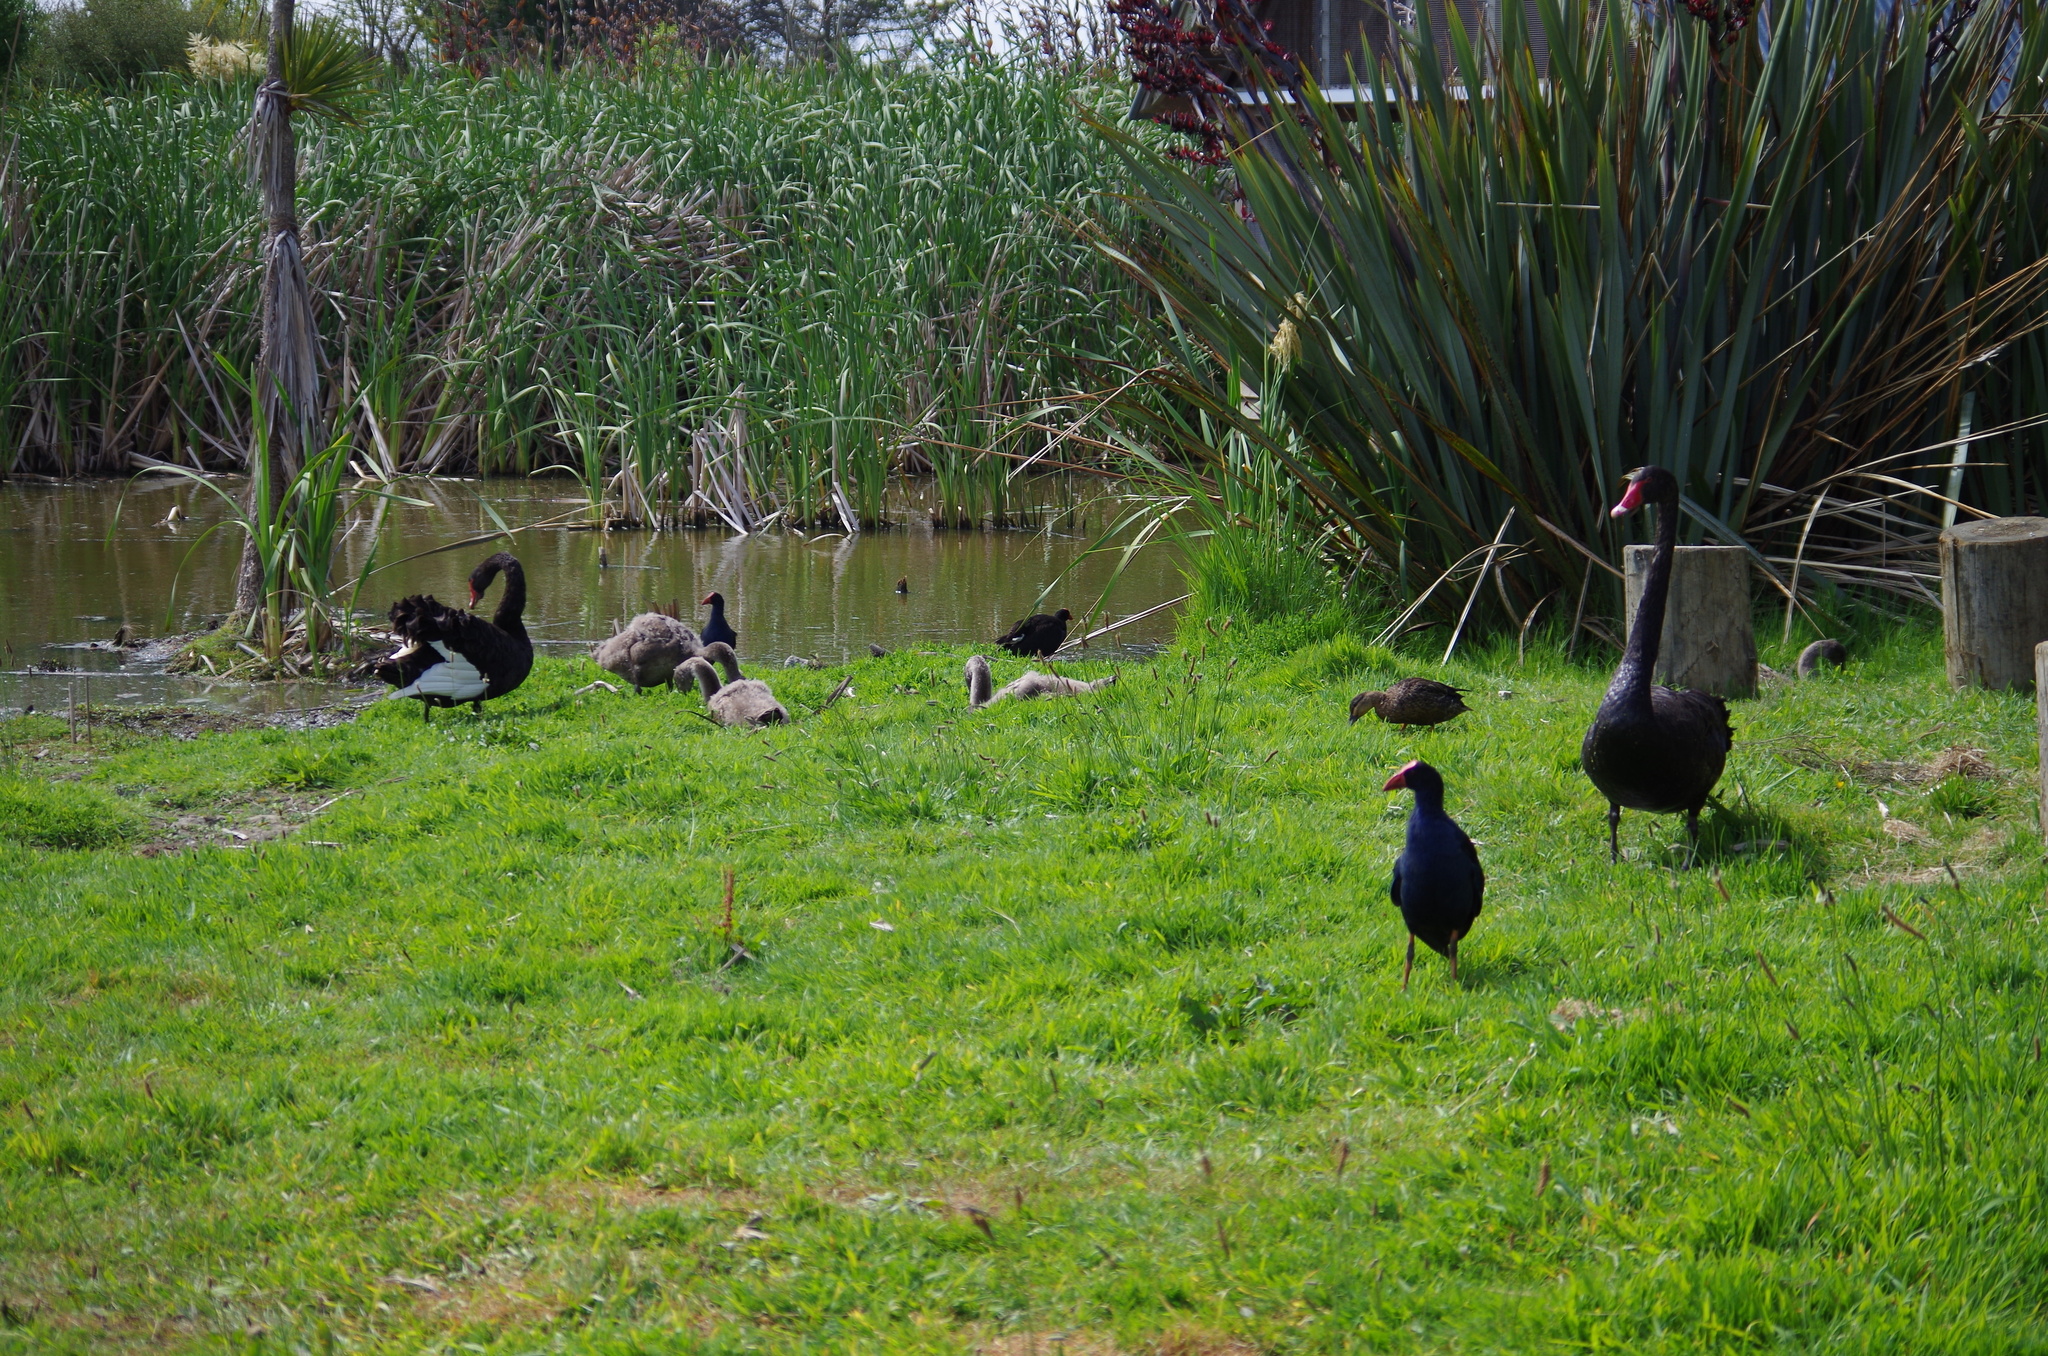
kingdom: Animalia
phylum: Chordata
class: Aves
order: Anseriformes
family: Anatidae
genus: Cygnus
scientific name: Cygnus atratus
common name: Black swan
